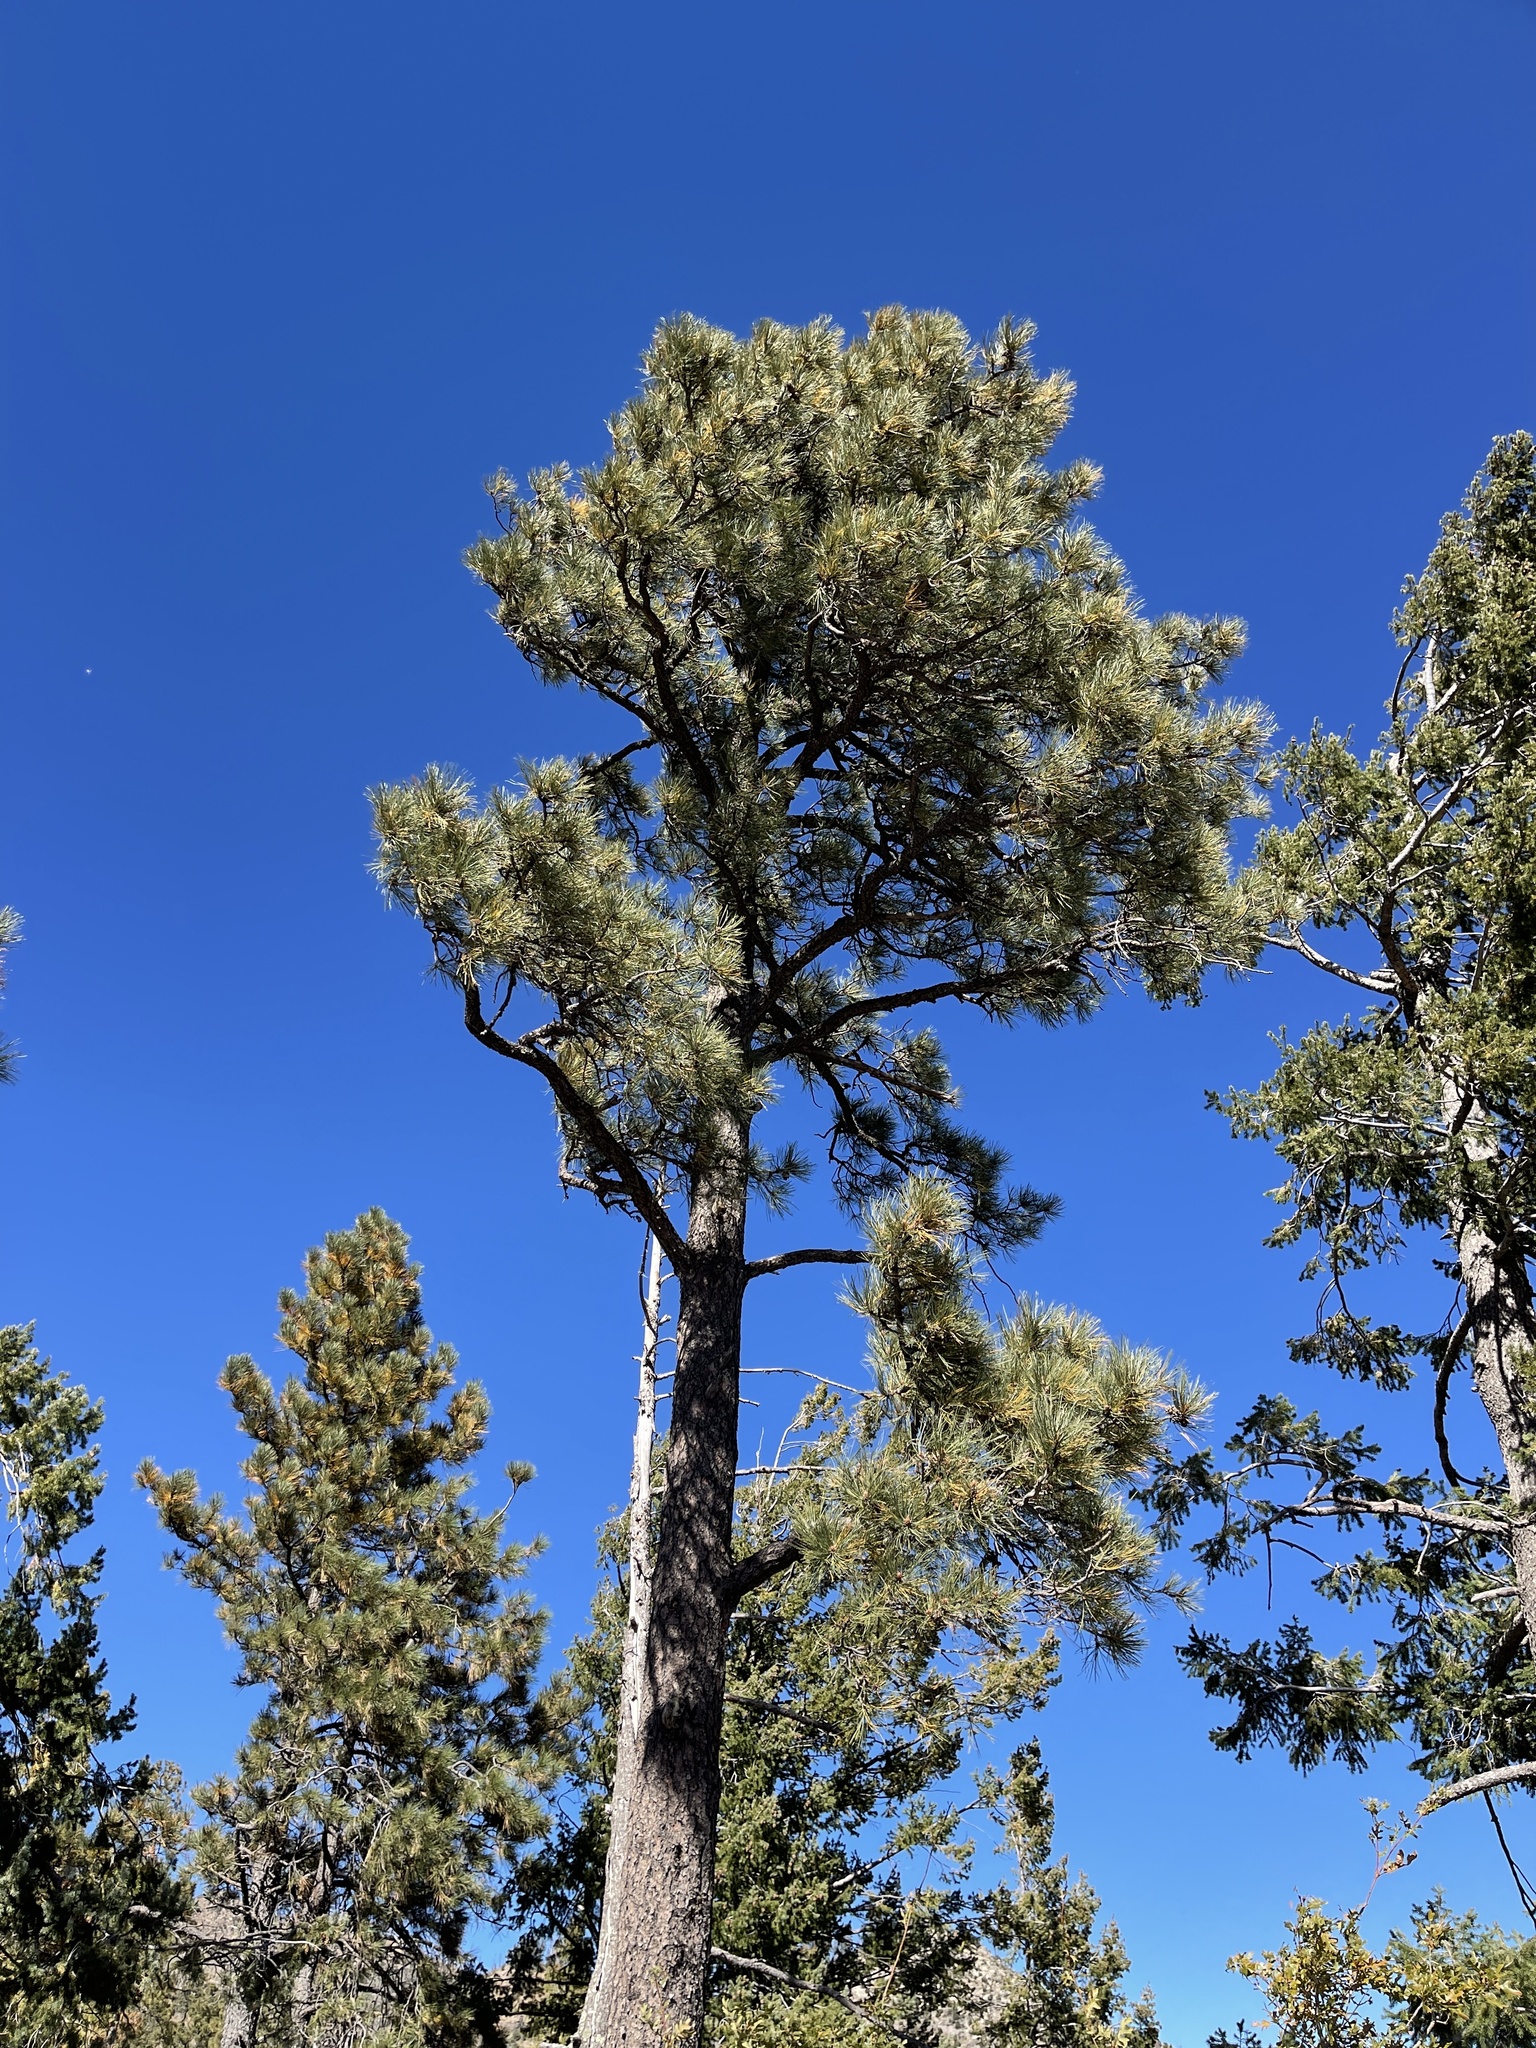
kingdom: Plantae
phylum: Tracheophyta
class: Pinopsida
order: Pinales
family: Pinaceae
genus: Pinus
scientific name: Pinus ponderosa
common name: Western yellow-pine
